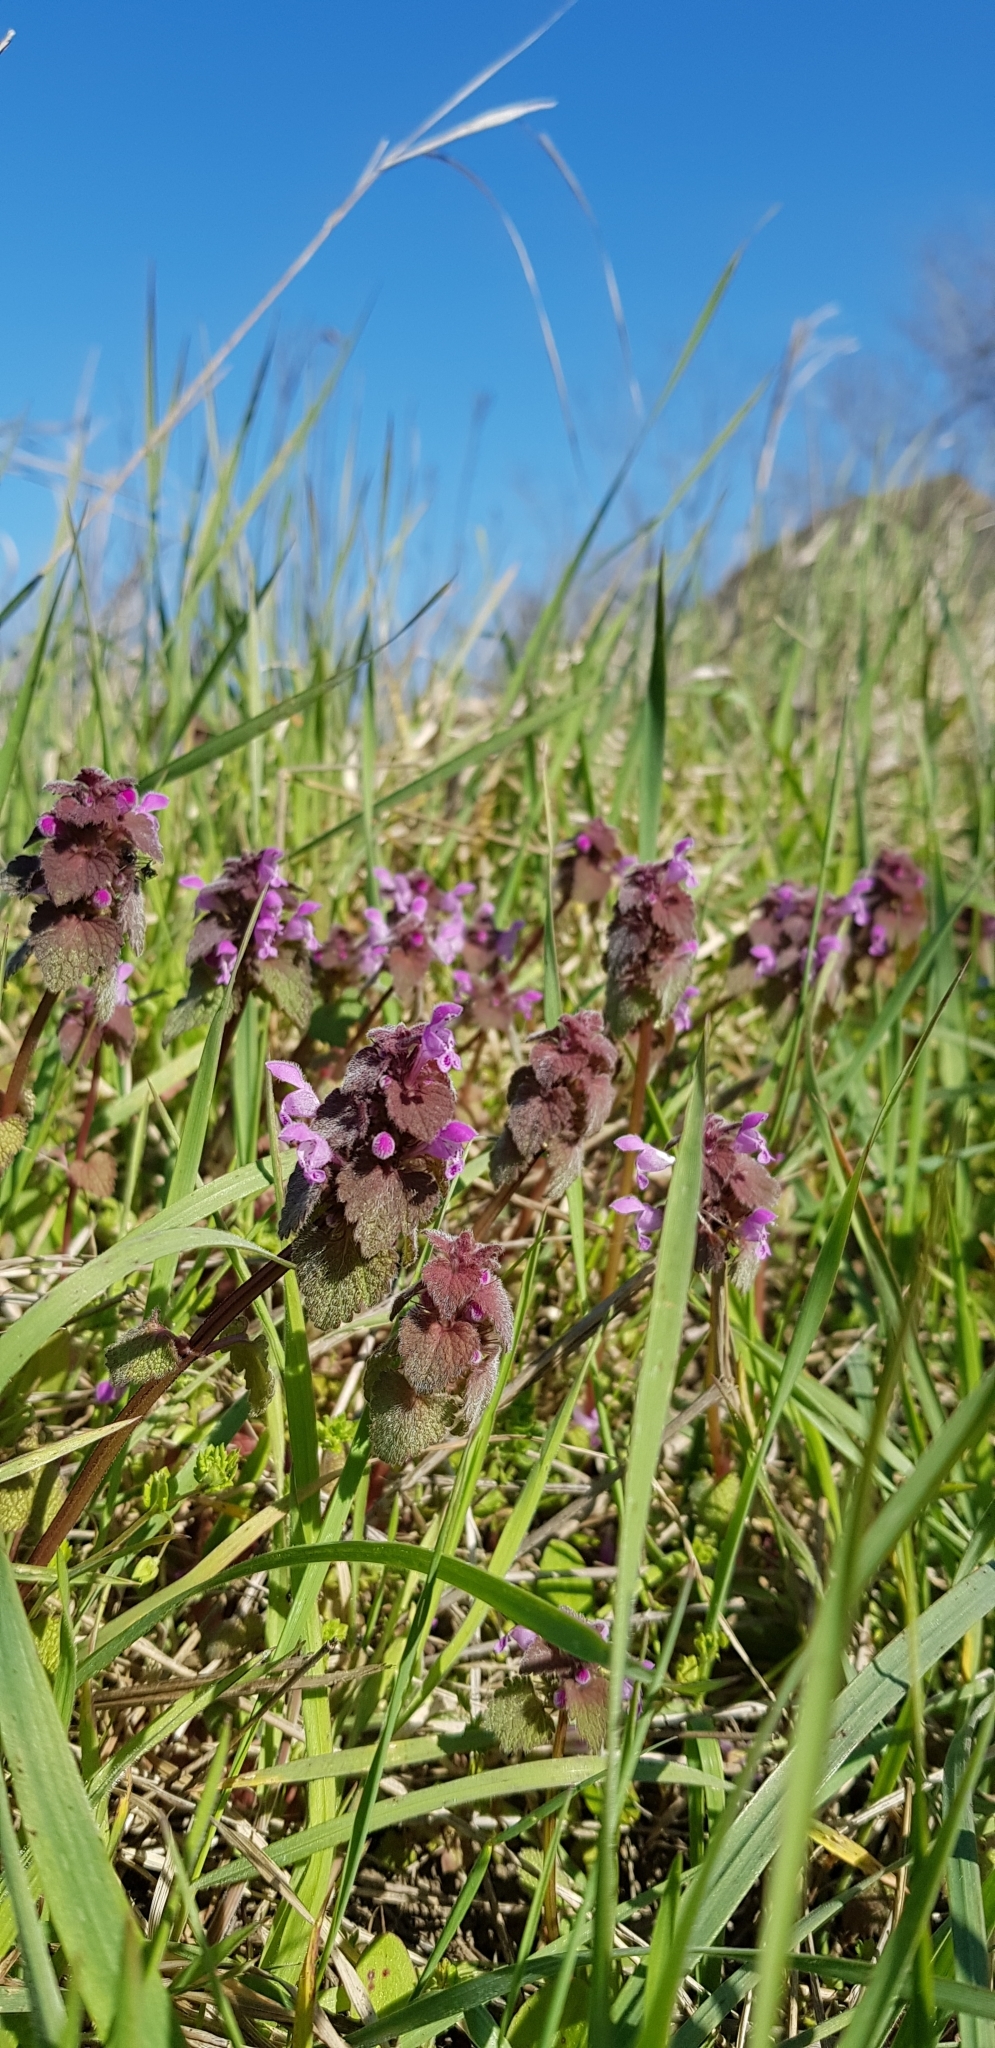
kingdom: Plantae
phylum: Tracheophyta
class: Magnoliopsida
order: Lamiales
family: Lamiaceae
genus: Lamium
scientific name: Lamium purpureum
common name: Red dead-nettle
